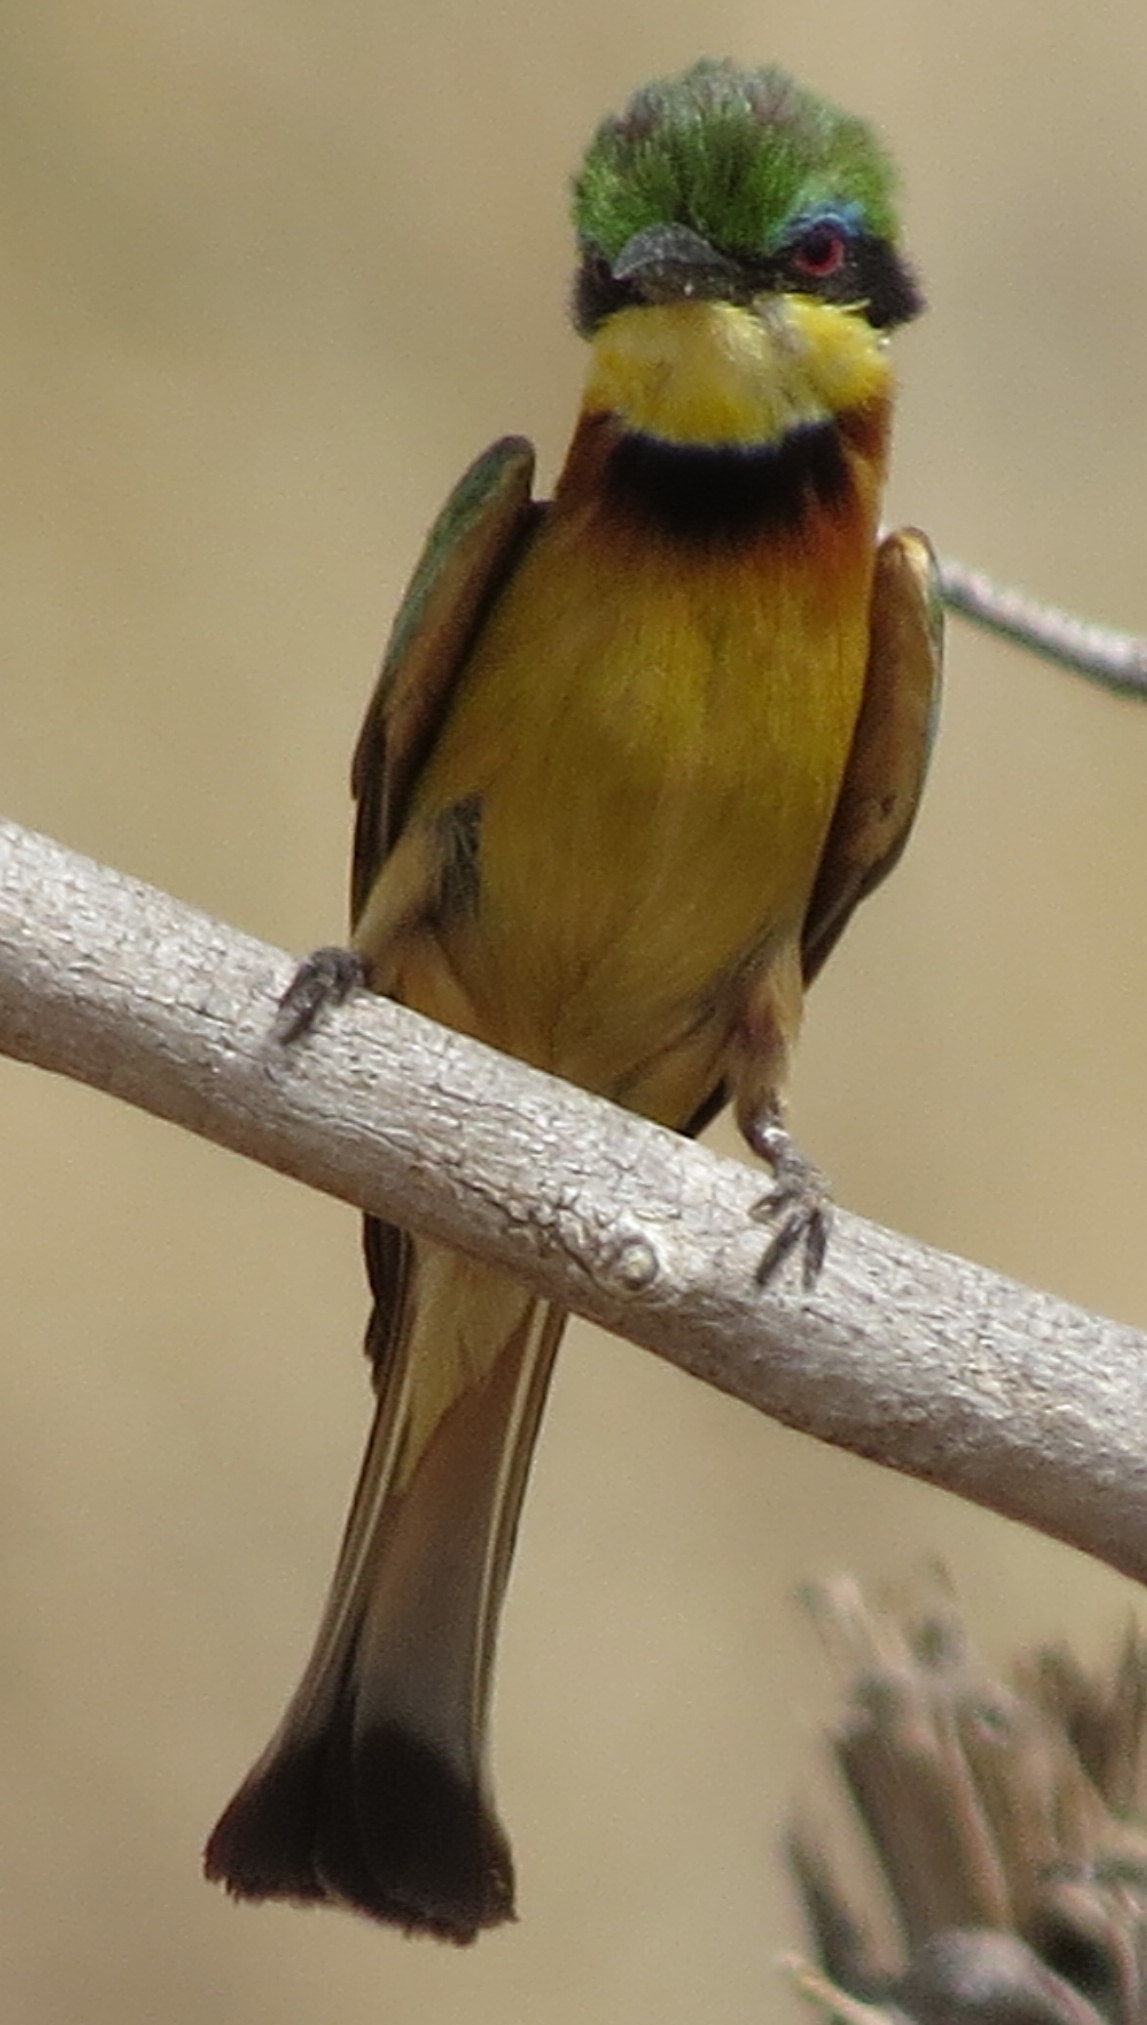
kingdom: Animalia
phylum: Chordata
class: Aves
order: Coraciiformes
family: Meropidae
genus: Merops
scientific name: Merops pusillus
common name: Little bee-eater
